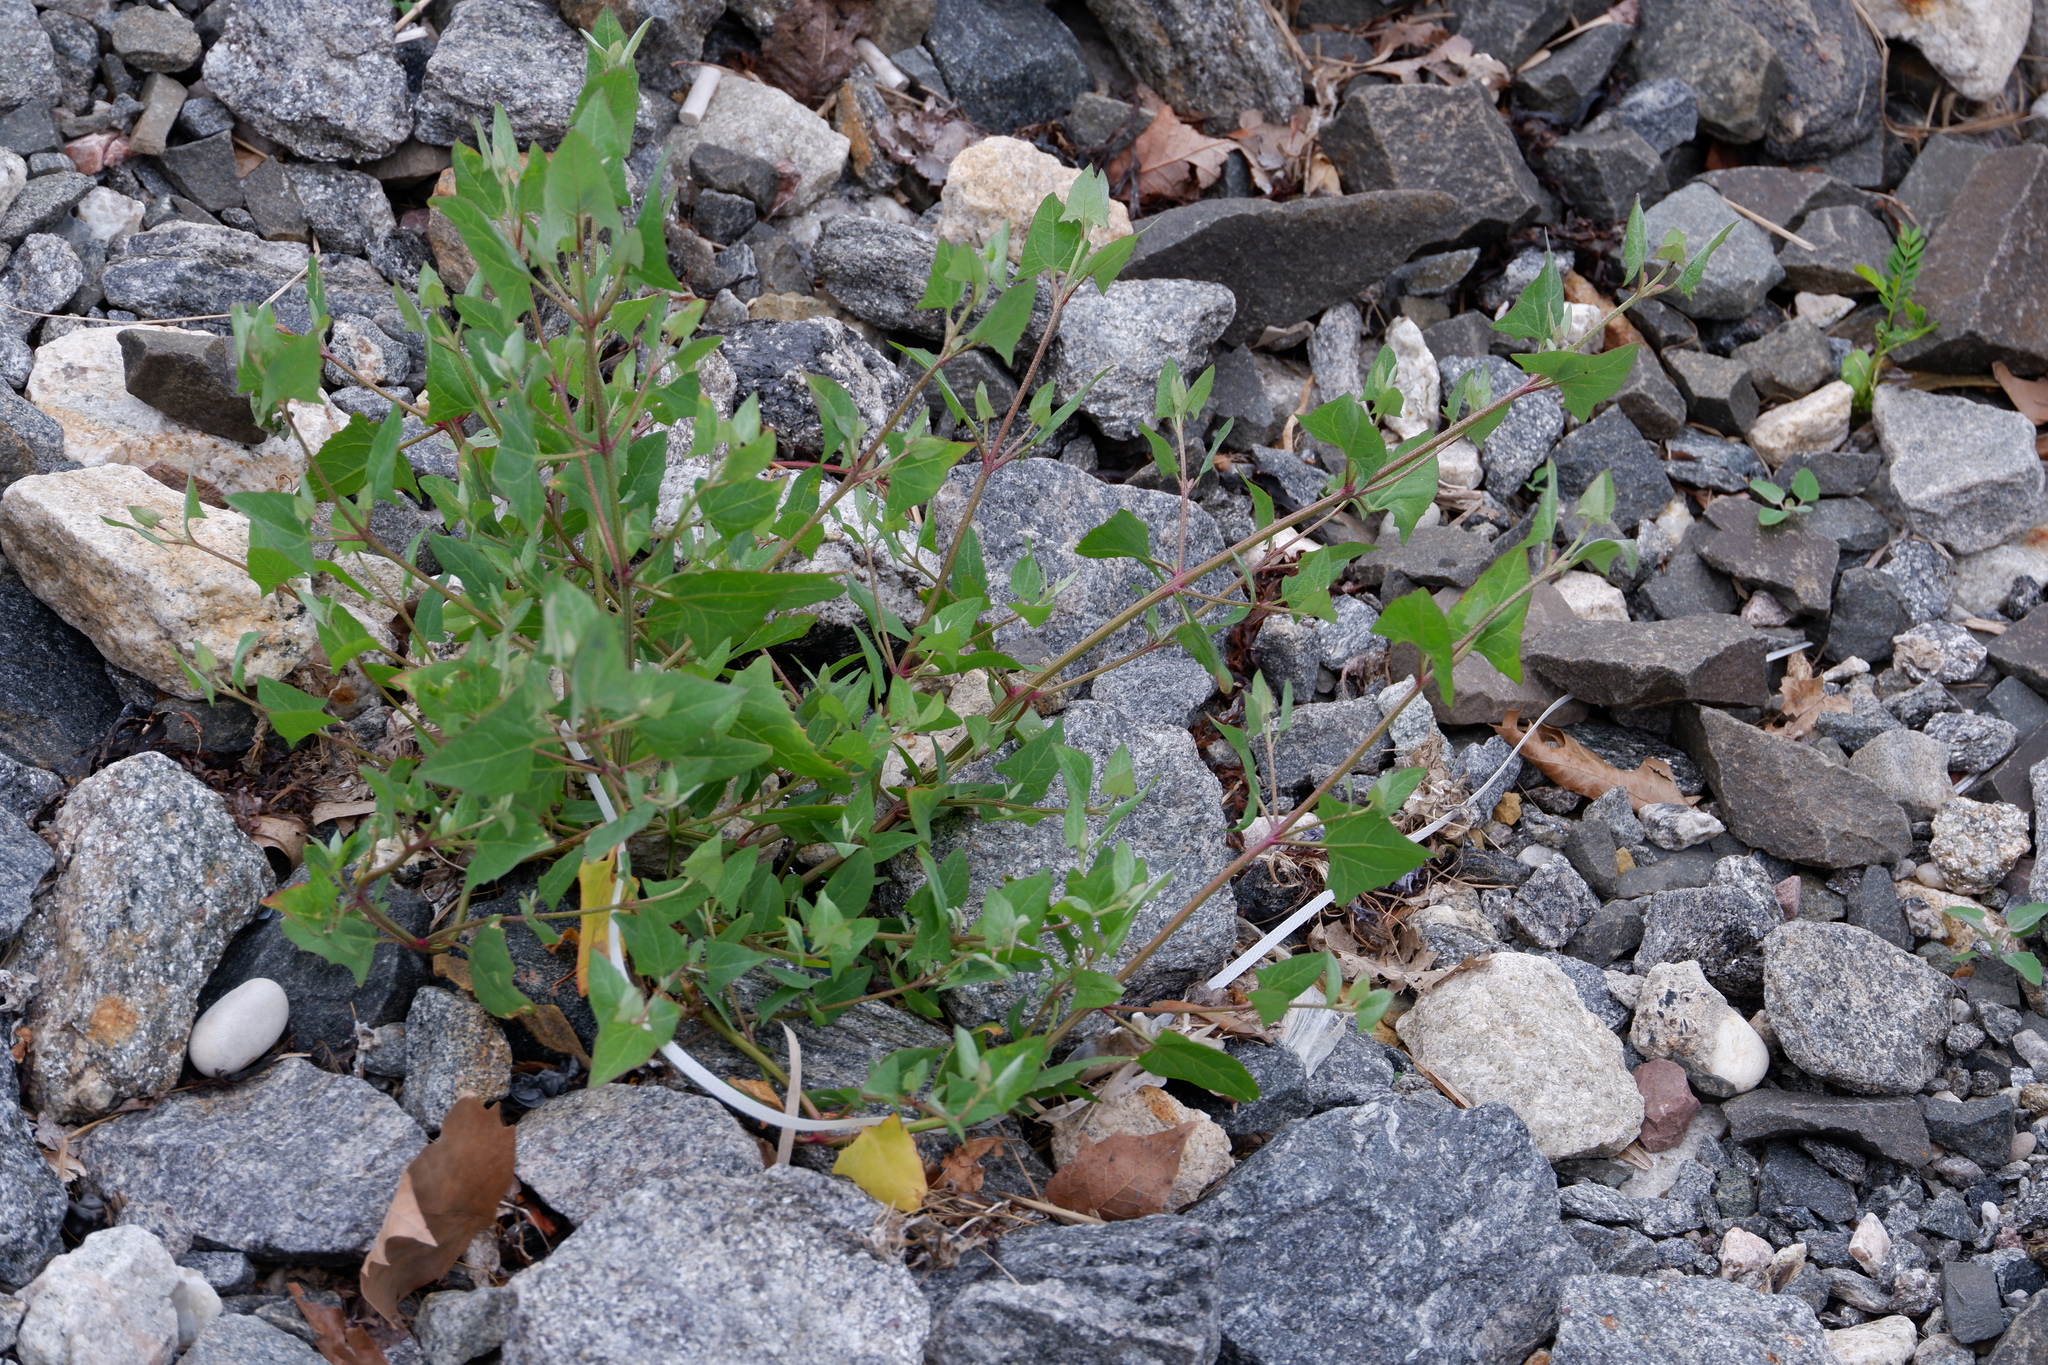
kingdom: Plantae
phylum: Tracheophyta
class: Magnoliopsida
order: Caryophyllales
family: Amaranthaceae
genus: Atriplex
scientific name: Atriplex prostrata
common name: Spear-leaved orache
